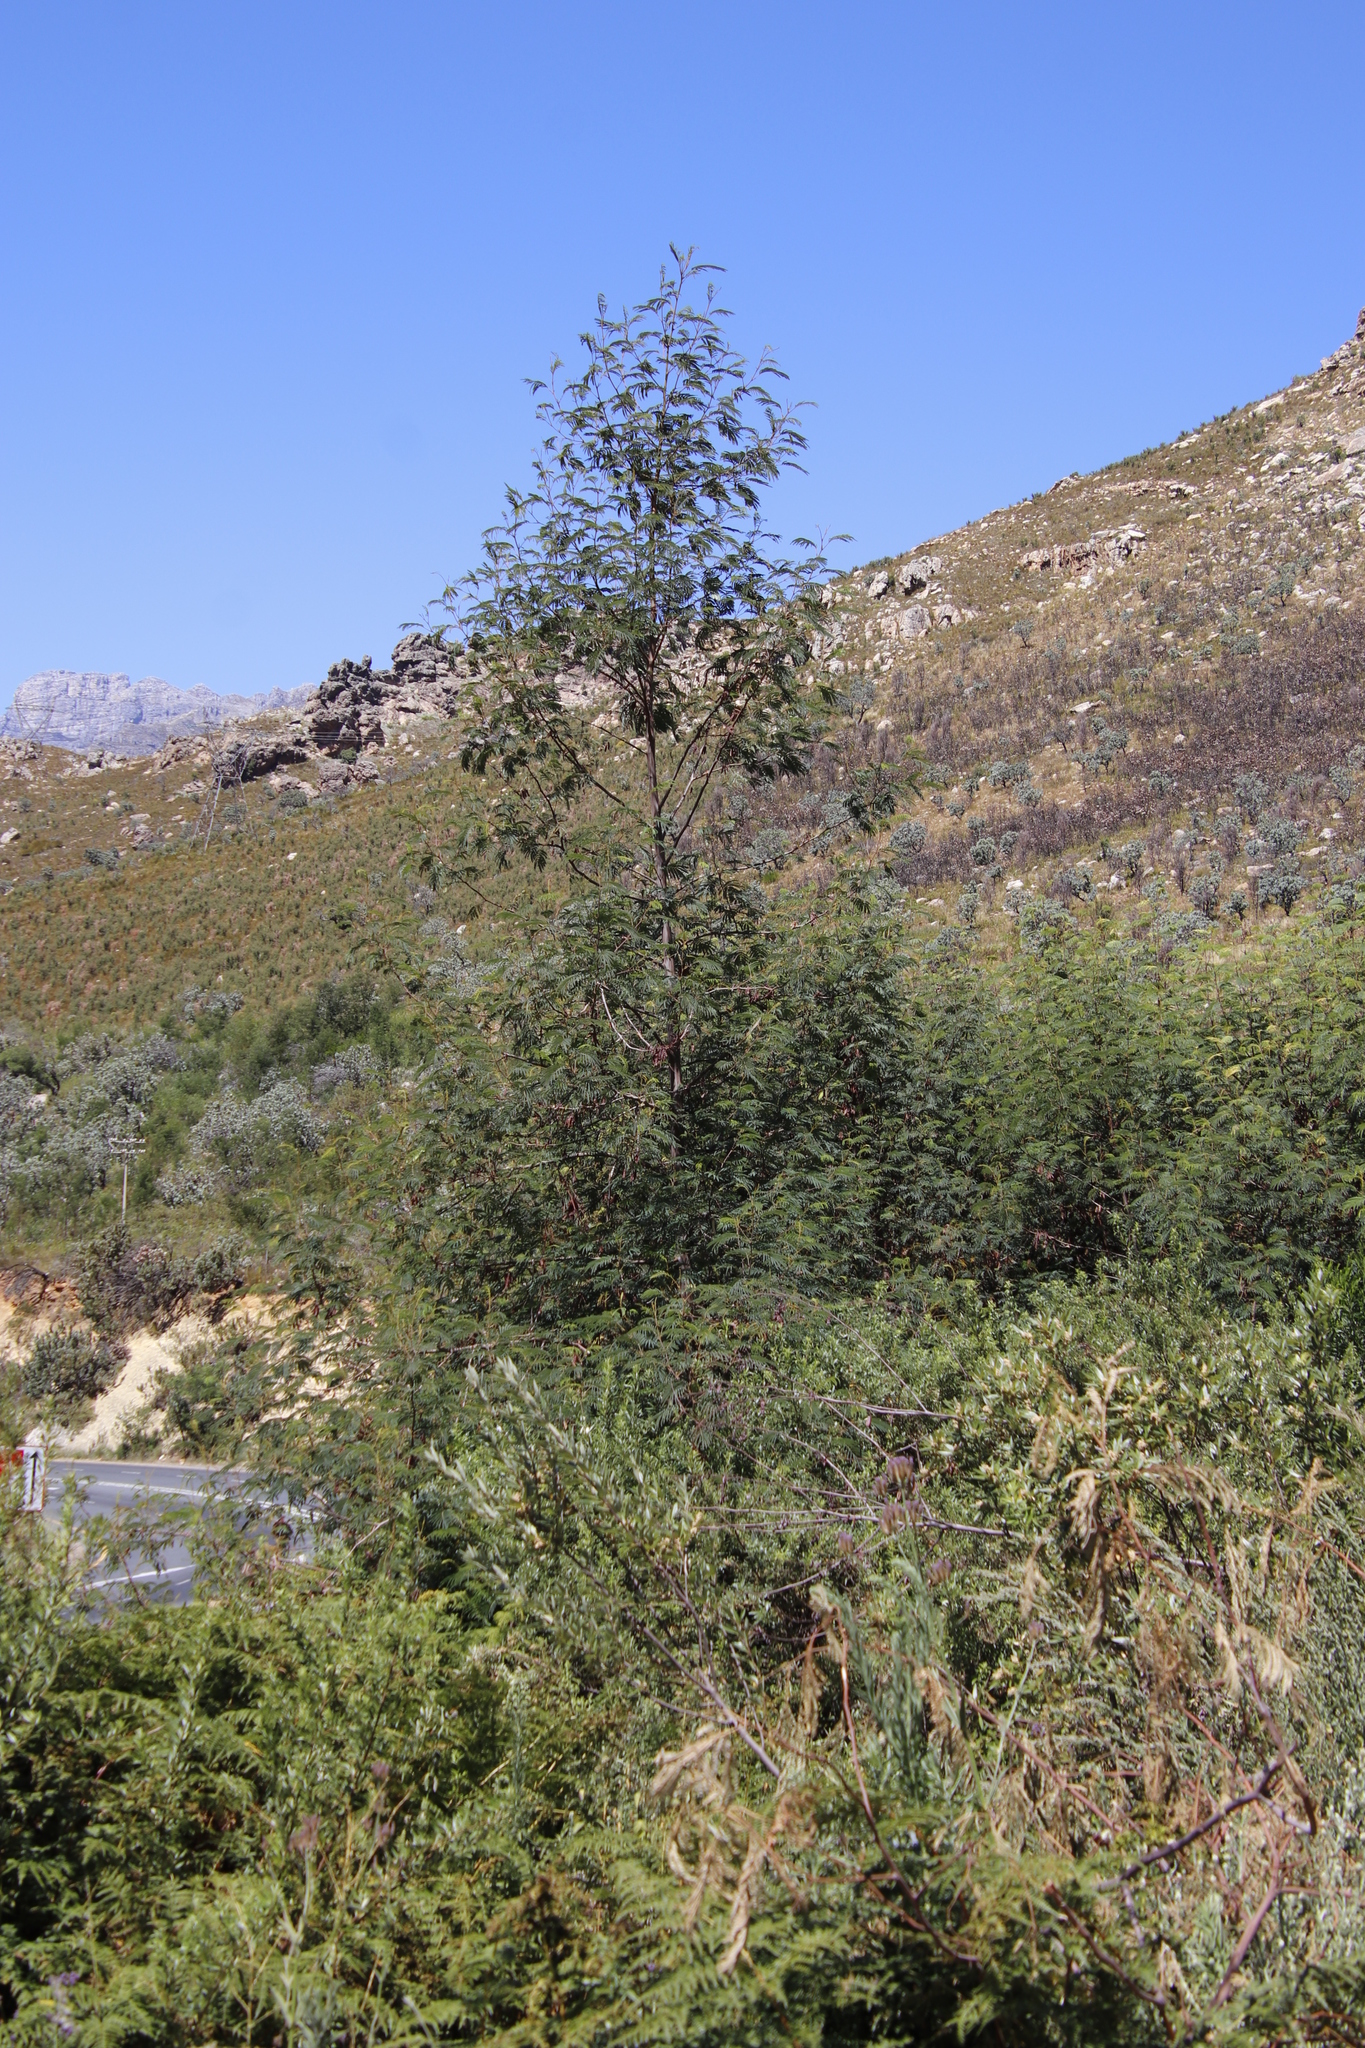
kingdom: Plantae
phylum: Tracheophyta
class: Magnoliopsida
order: Fabales
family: Fabaceae
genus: Paraserianthes
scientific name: Paraserianthes lophantha
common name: Plume albizia
